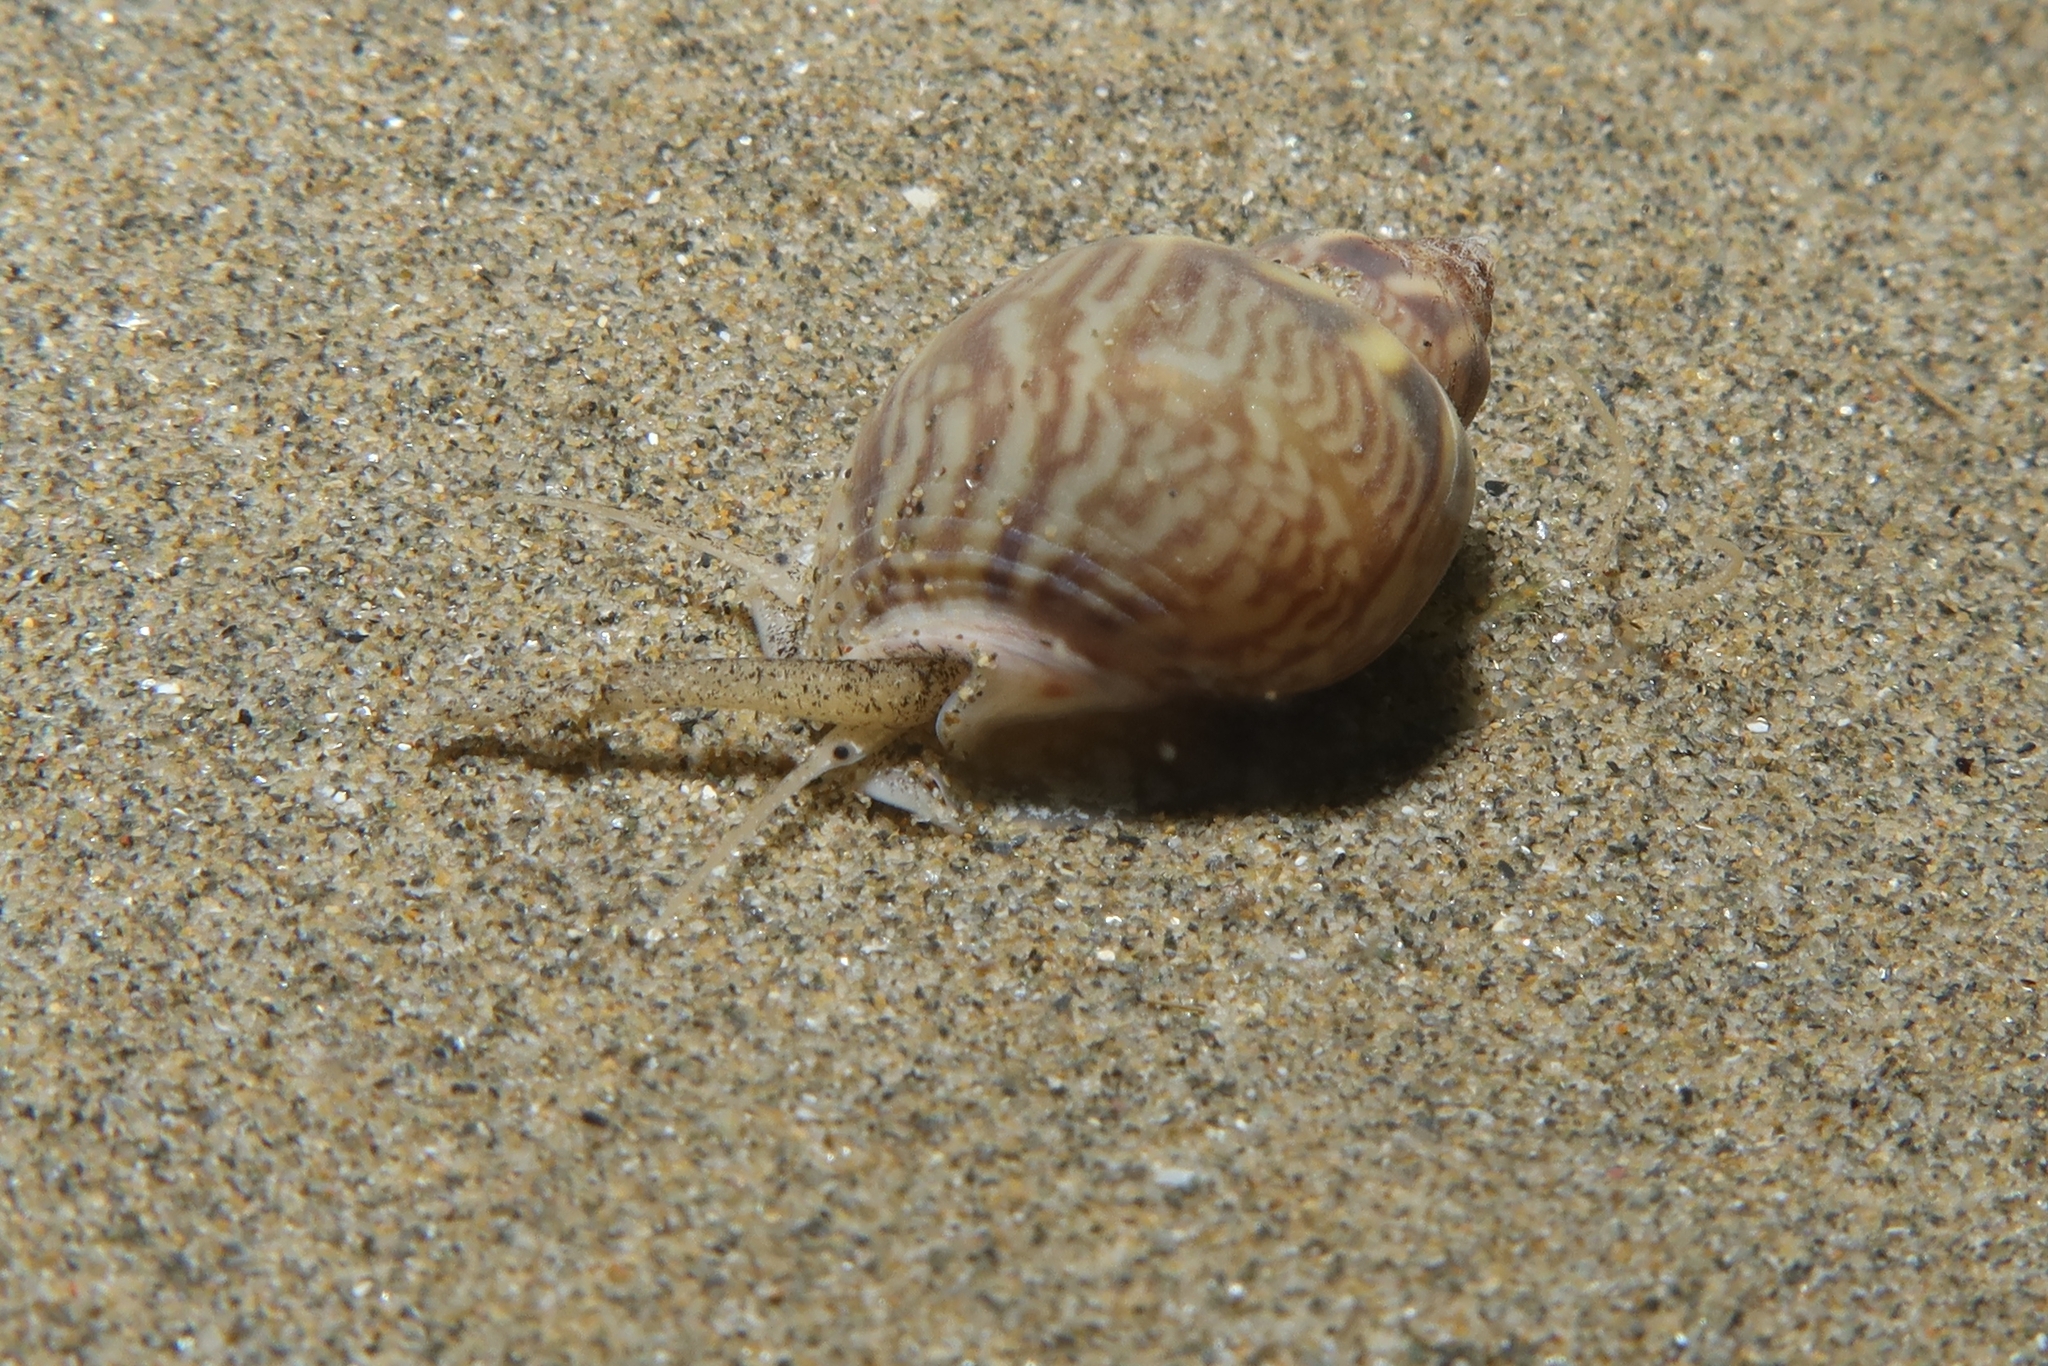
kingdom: Animalia
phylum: Mollusca
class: Gastropoda
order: Neogastropoda
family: Nassariidae
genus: Tritia
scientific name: Tritia mutabilis
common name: Mutable nassa
